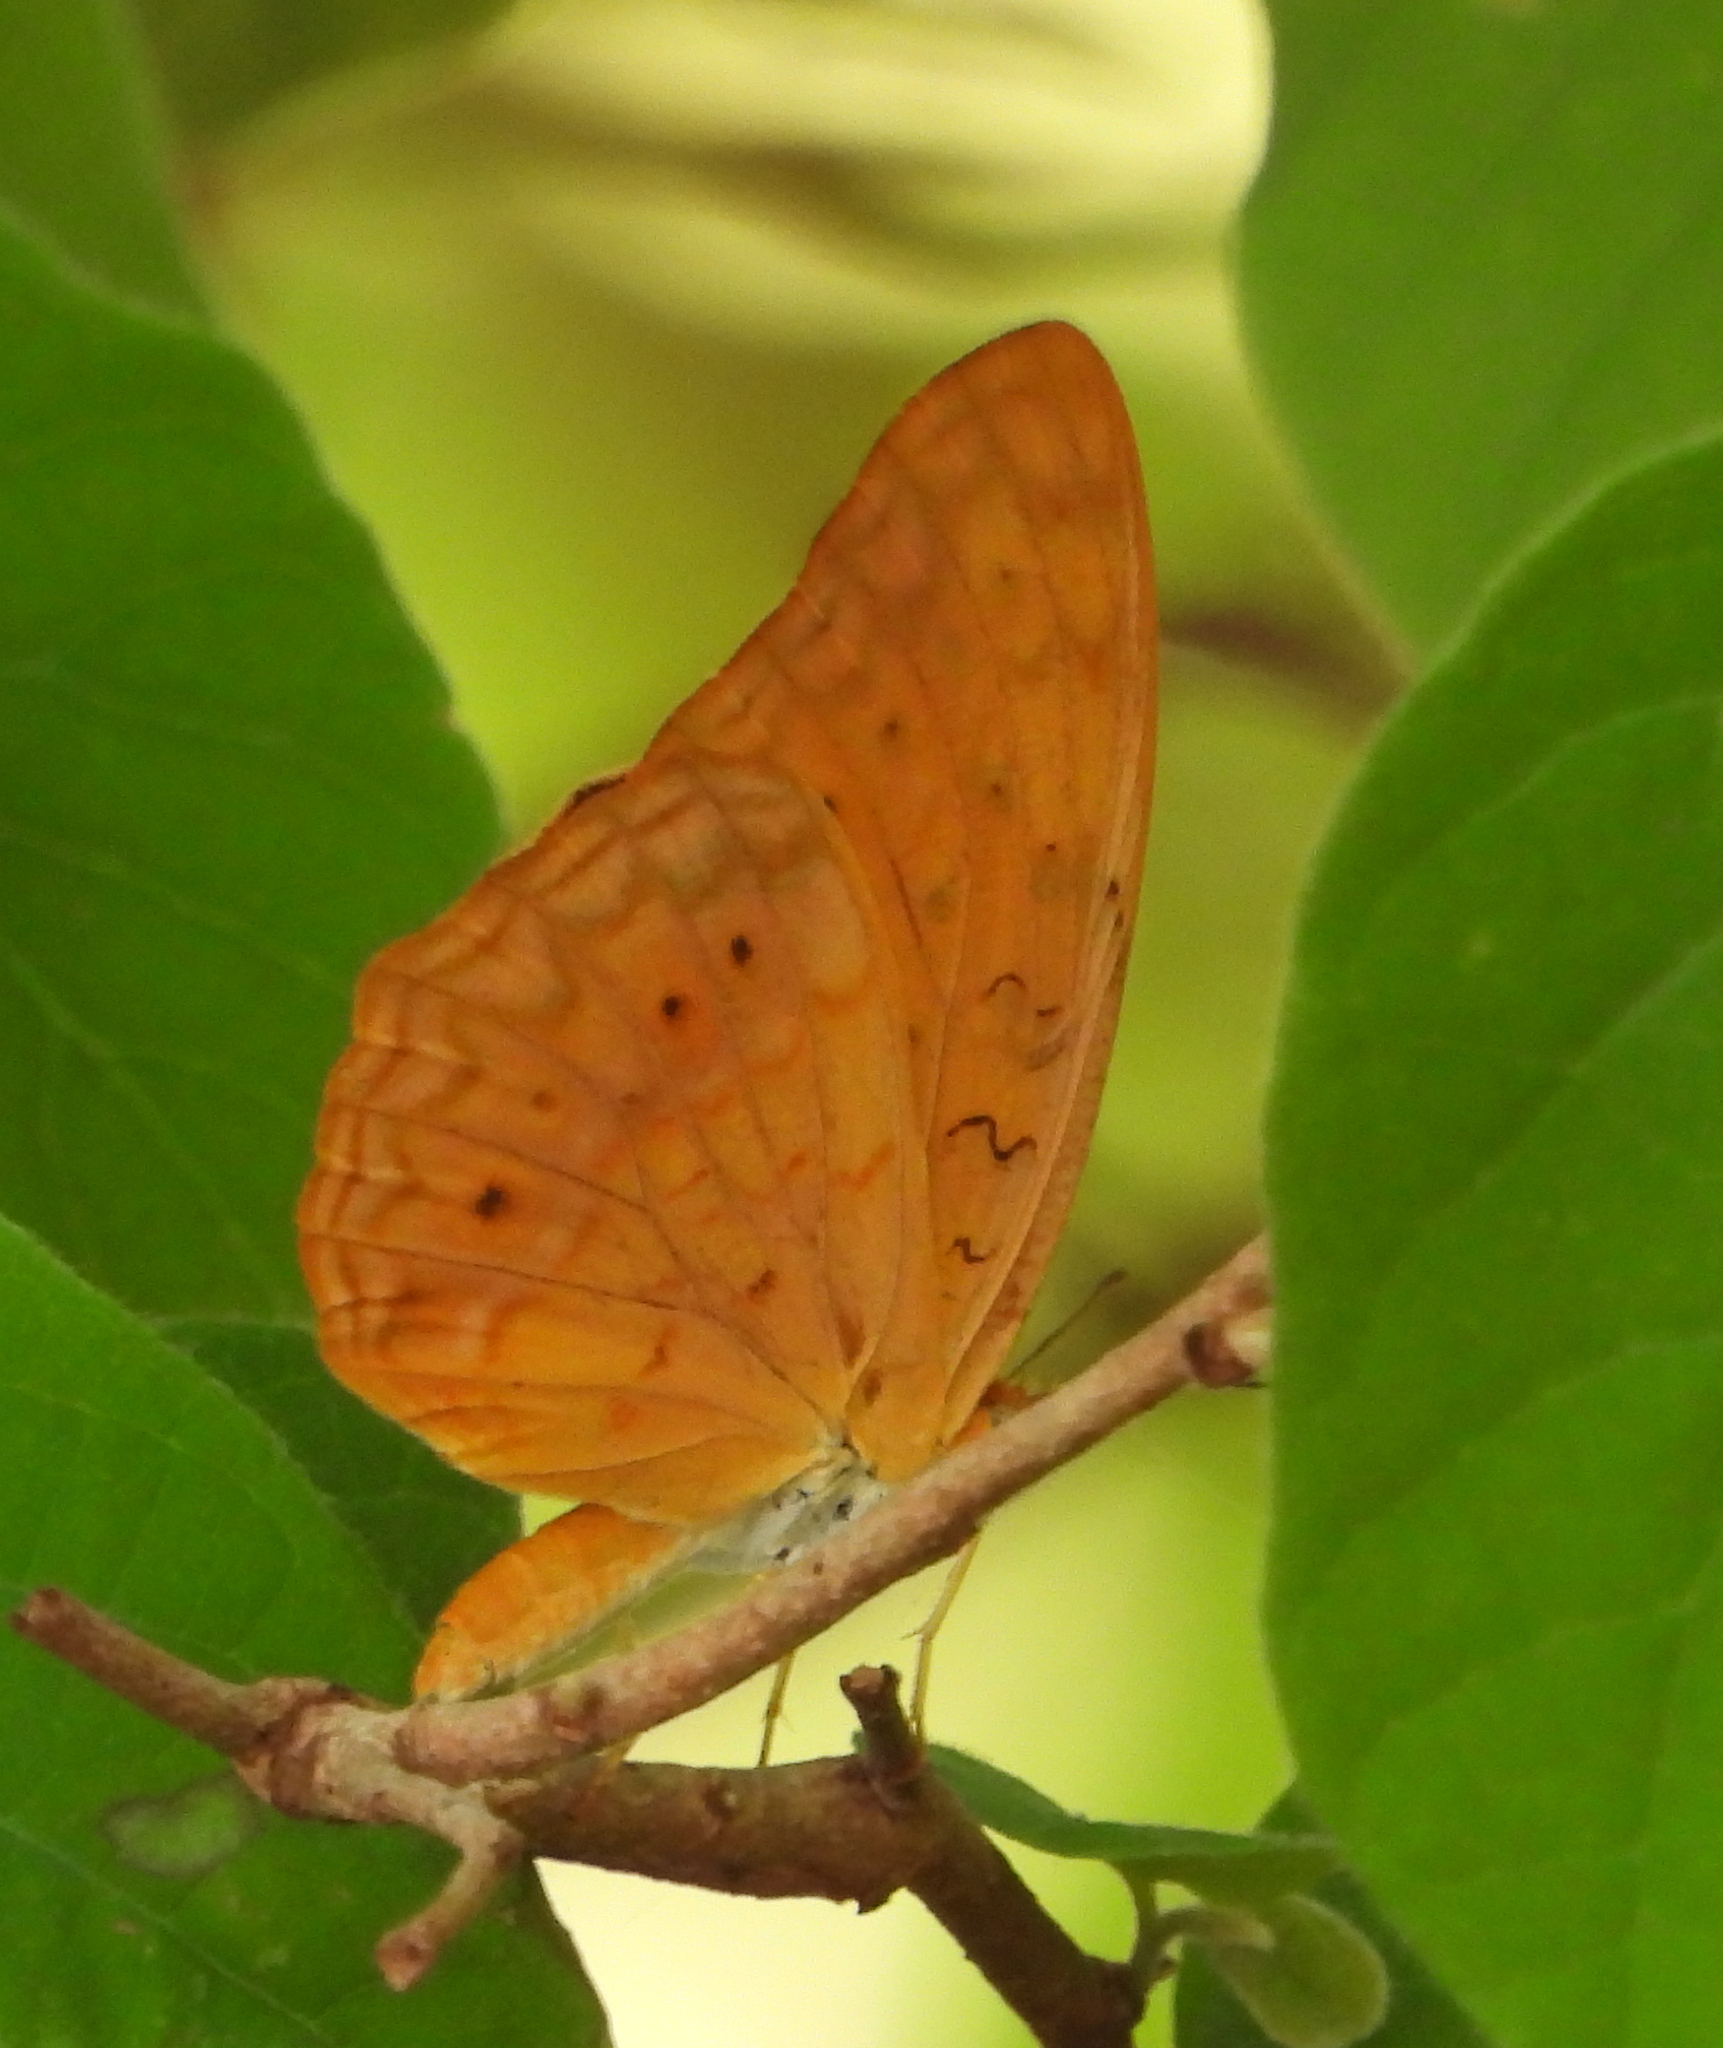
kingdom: Animalia
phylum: Arthropoda
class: Insecta
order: Lepidoptera
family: Nymphalidae
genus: Phalanta
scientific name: Phalanta phalantha
